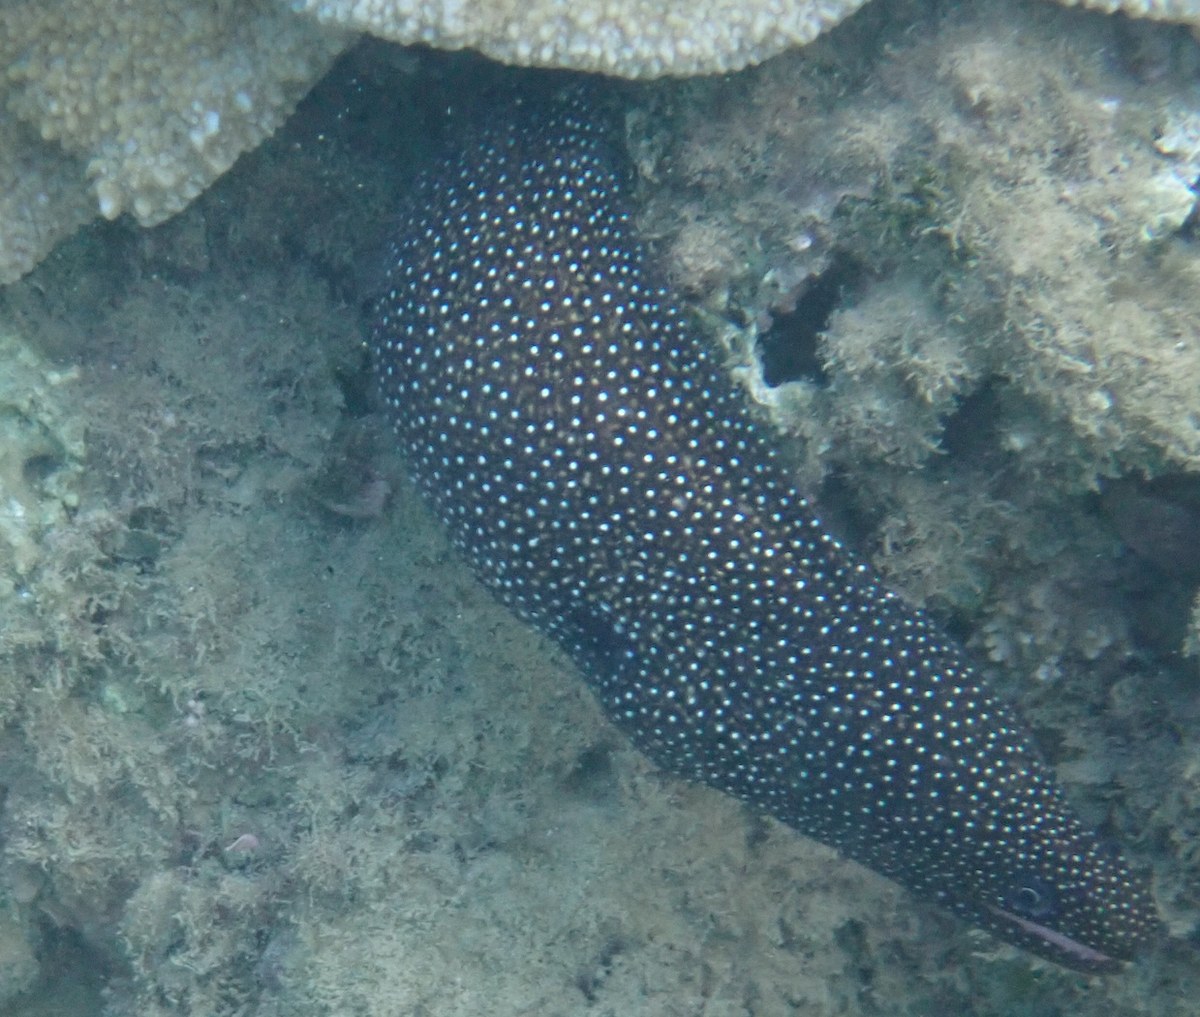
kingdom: Animalia
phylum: Chordata
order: Anguilliformes
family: Muraenidae
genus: Gymnothorax
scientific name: Gymnothorax meleagris
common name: Guineafowl moray
